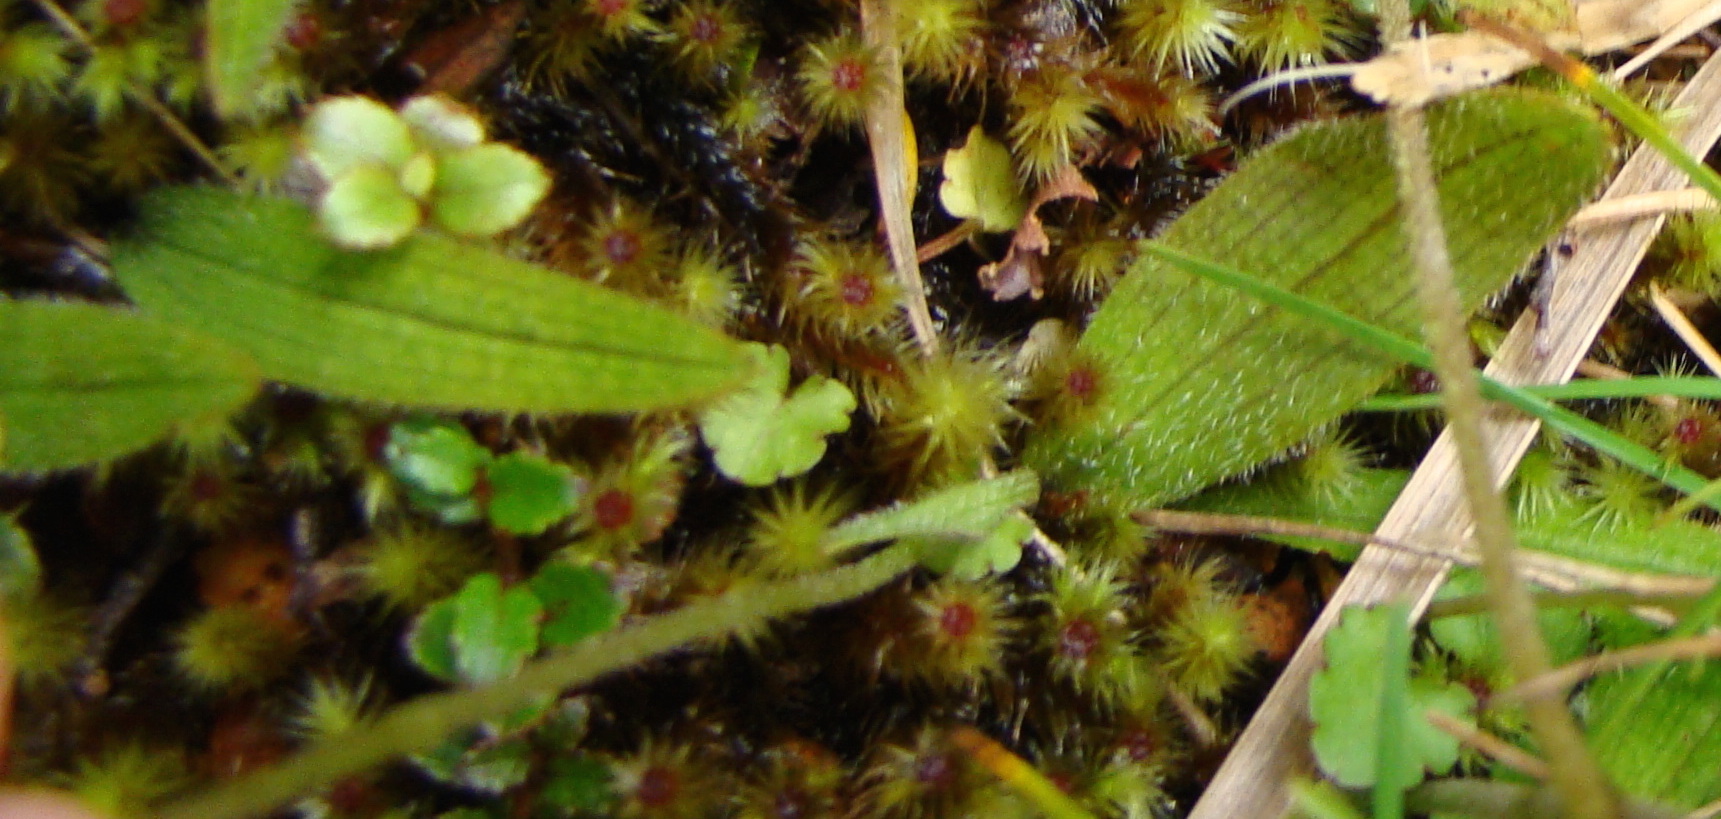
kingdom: Plantae
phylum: Tracheophyta
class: Liliopsida
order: Asparagales
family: Orchidaceae
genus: Aporostylis
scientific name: Aporostylis bifolia
